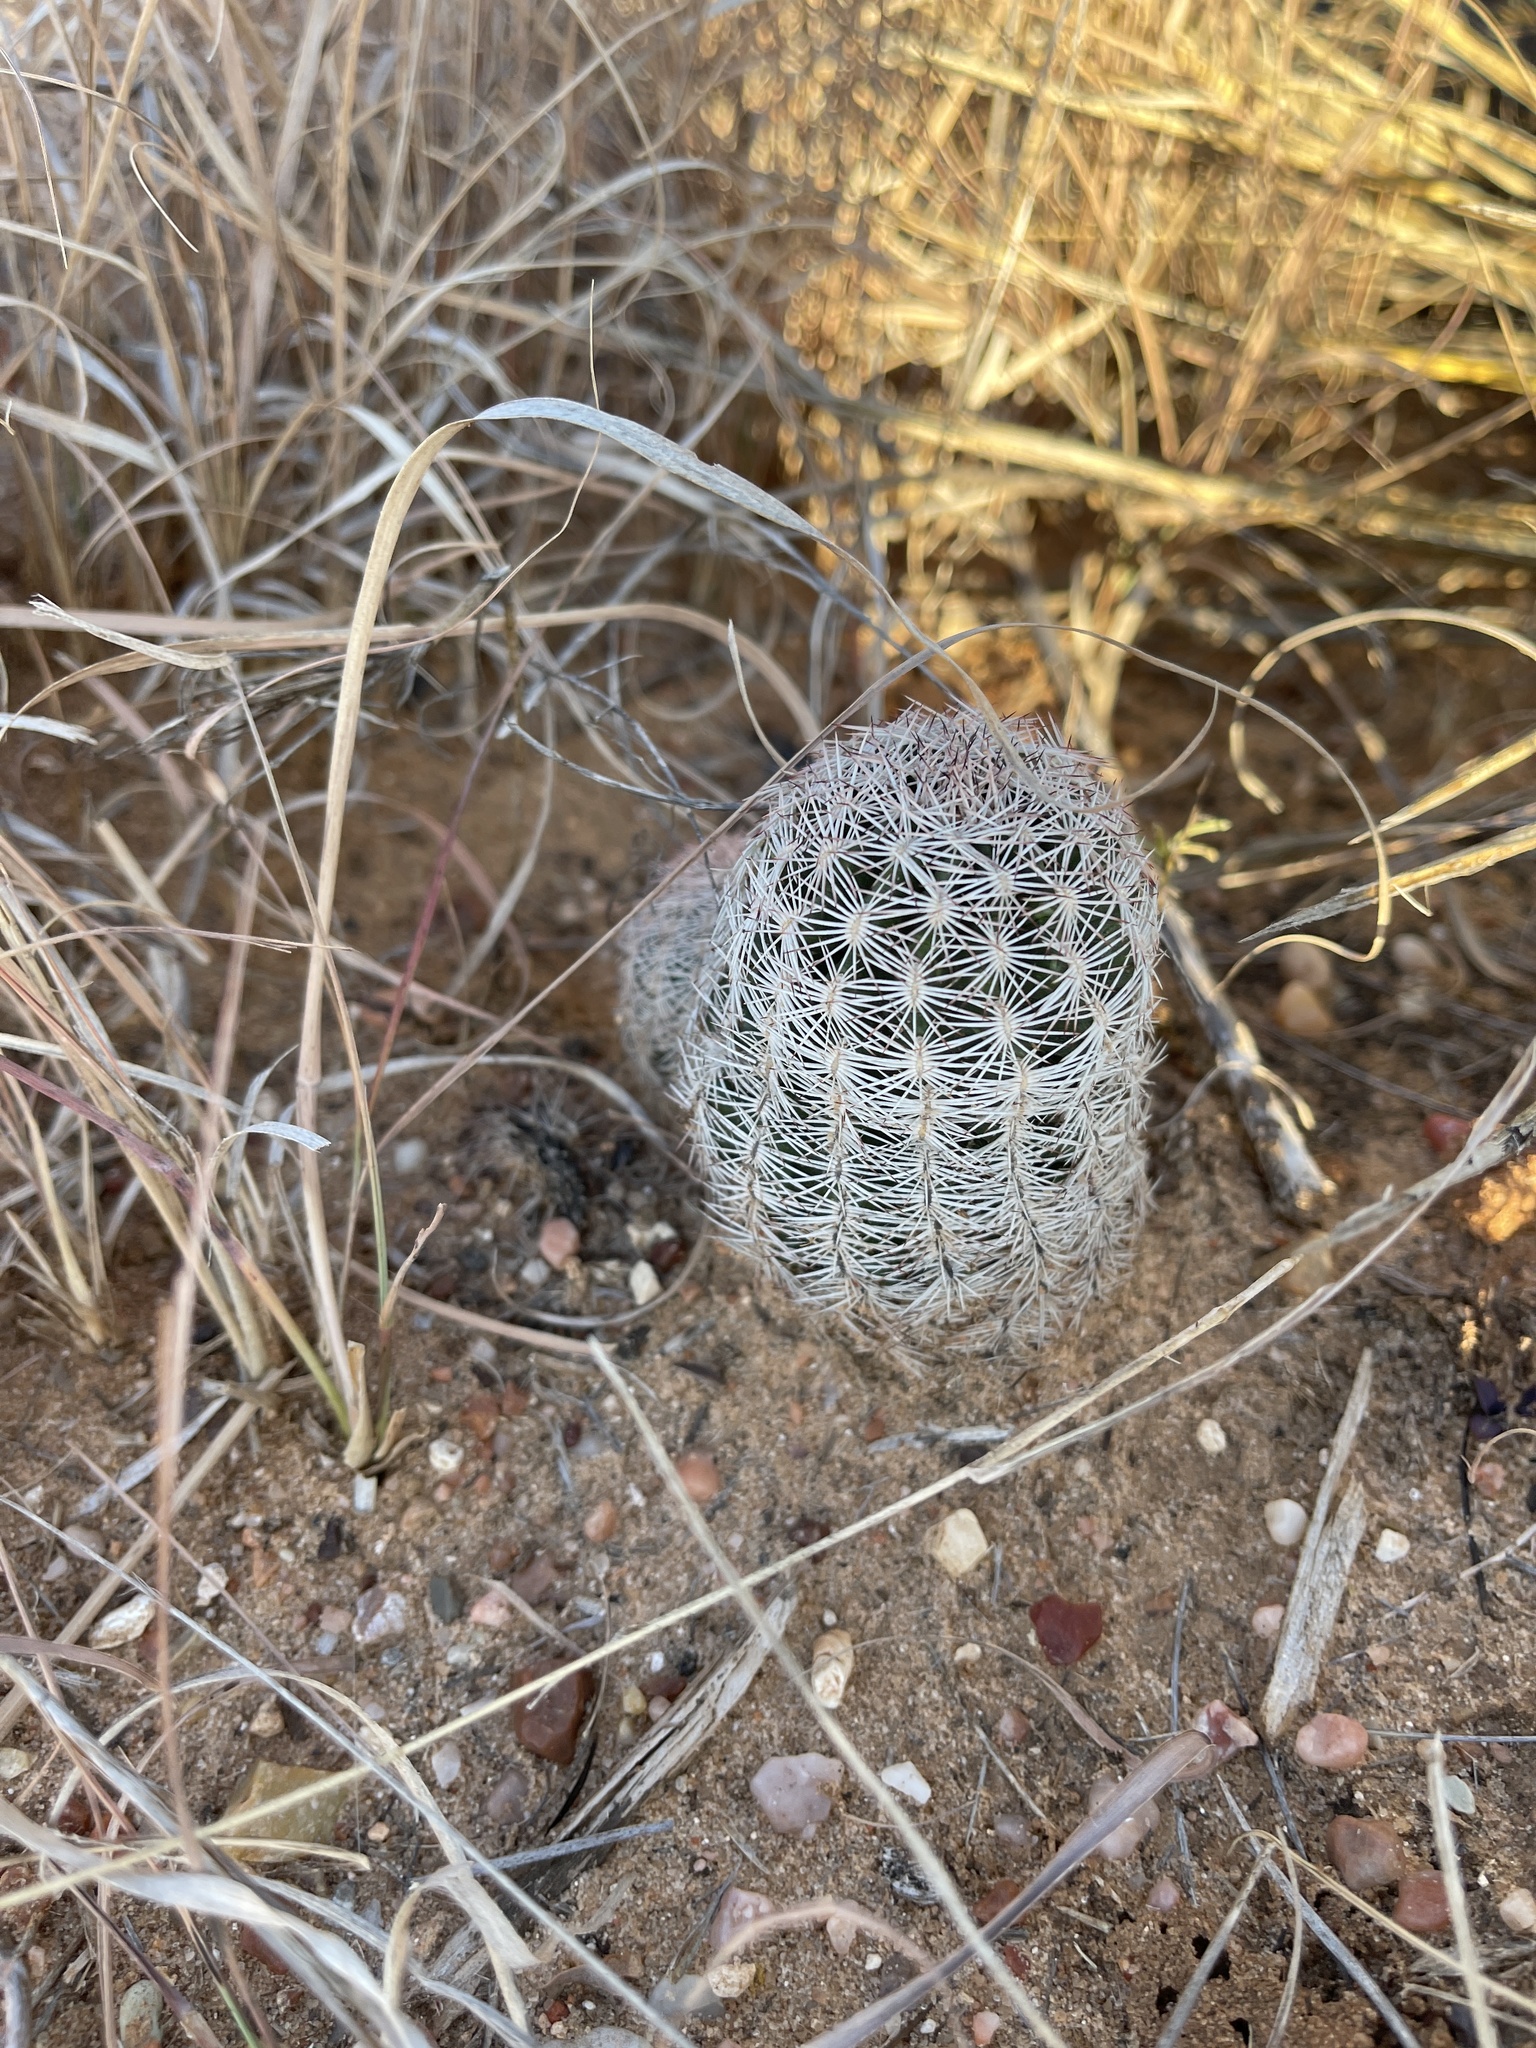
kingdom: Plantae
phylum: Tracheophyta
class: Magnoliopsida
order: Caryophyllales
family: Cactaceae
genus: Echinocereus
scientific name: Echinocereus reichenbachii
